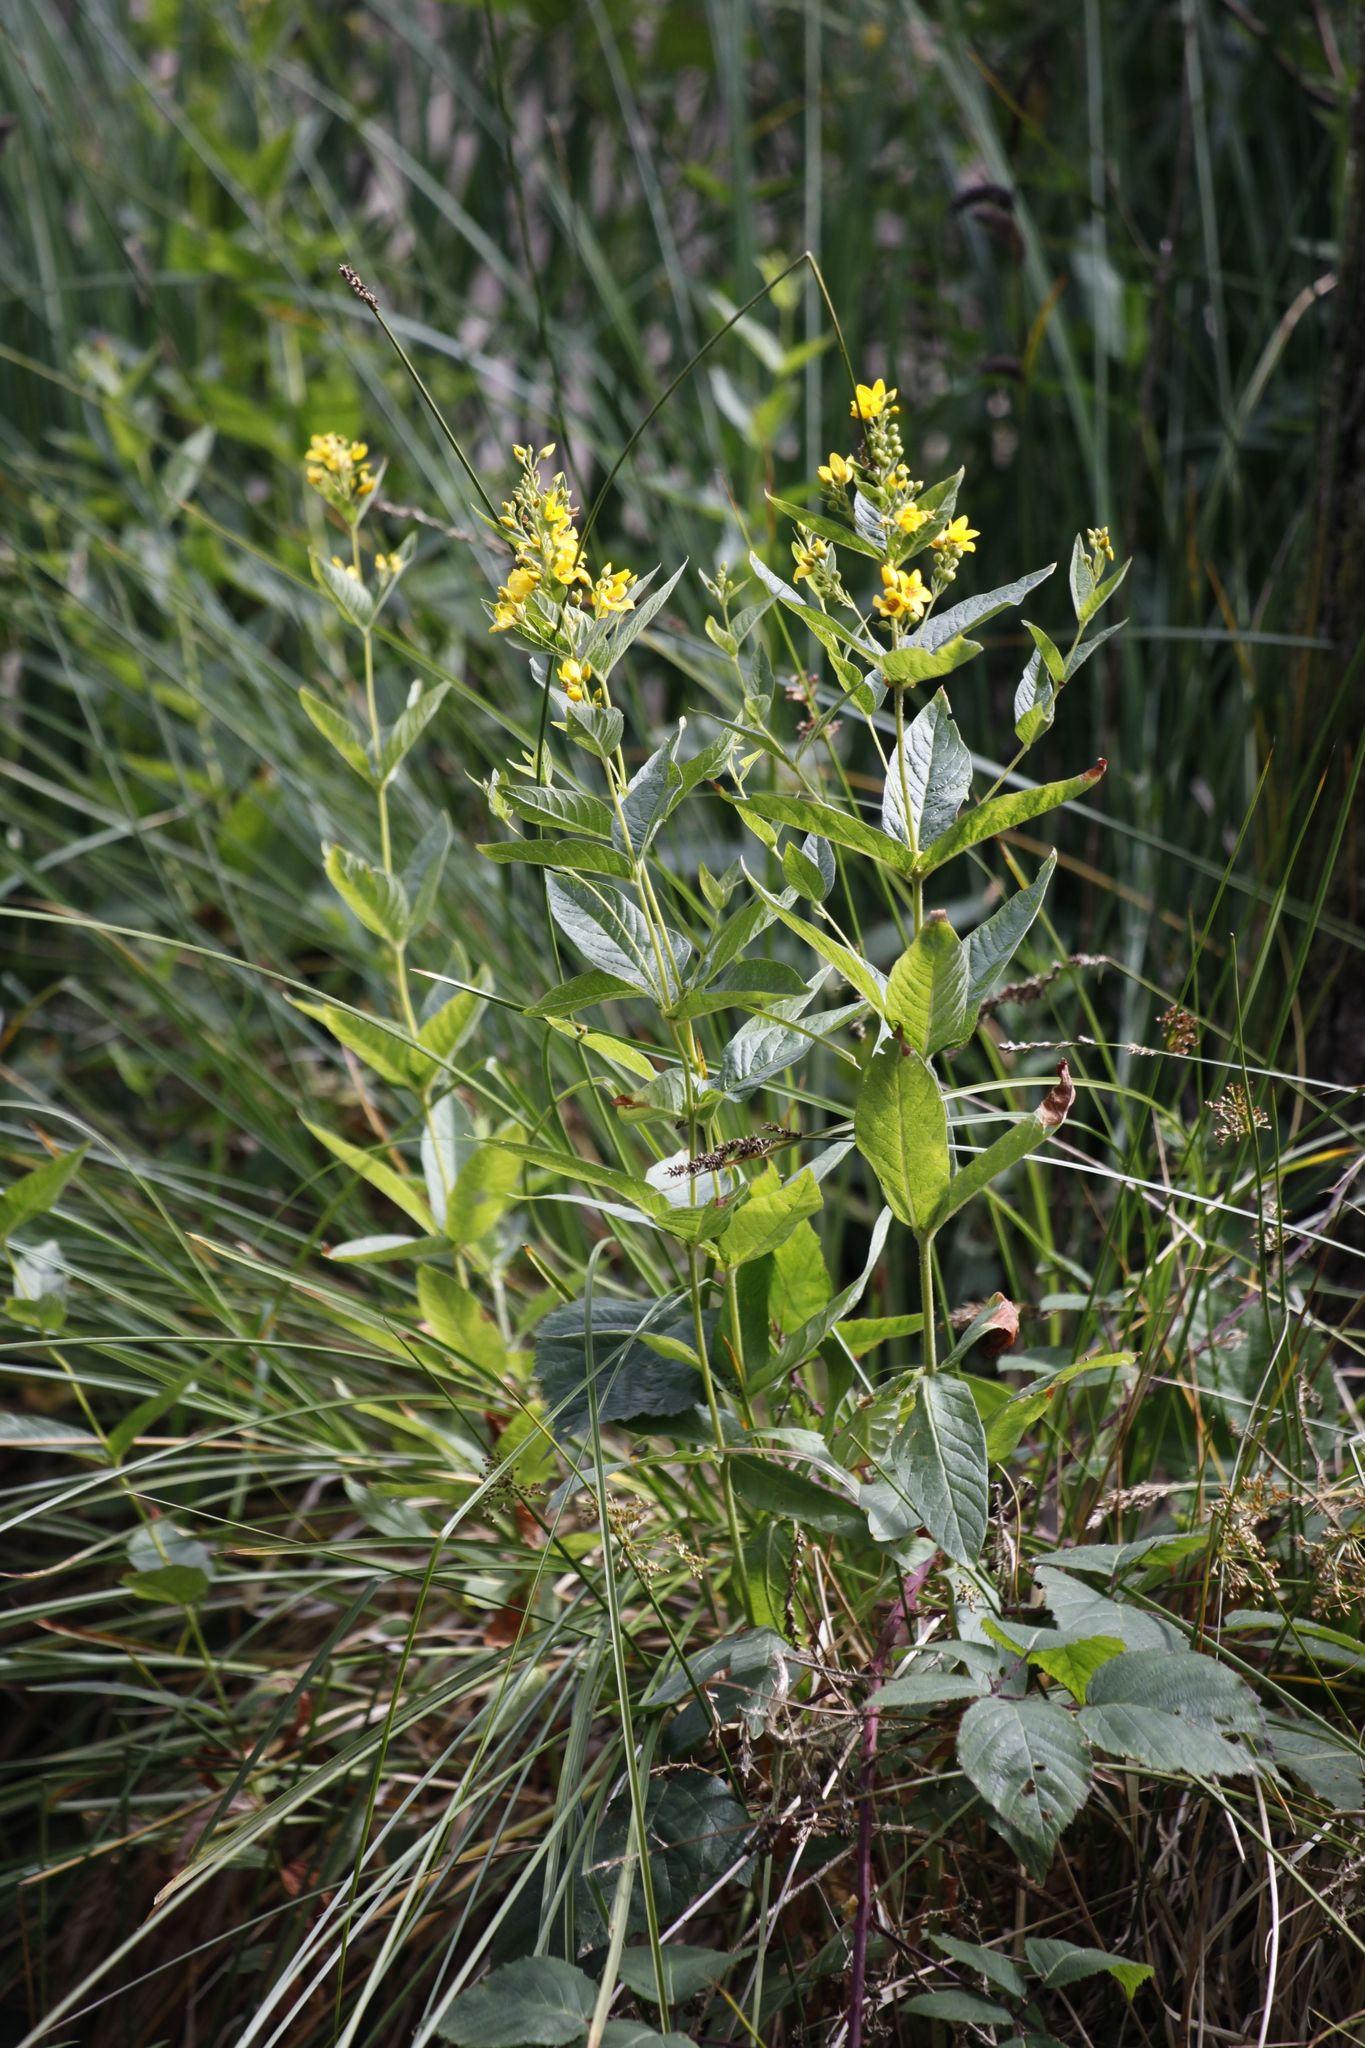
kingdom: Plantae
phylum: Tracheophyta
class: Magnoliopsida
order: Ericales
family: Primulaceae
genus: Lysimachia
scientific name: Lysimachia vulgaris
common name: Yellow loosestrife
